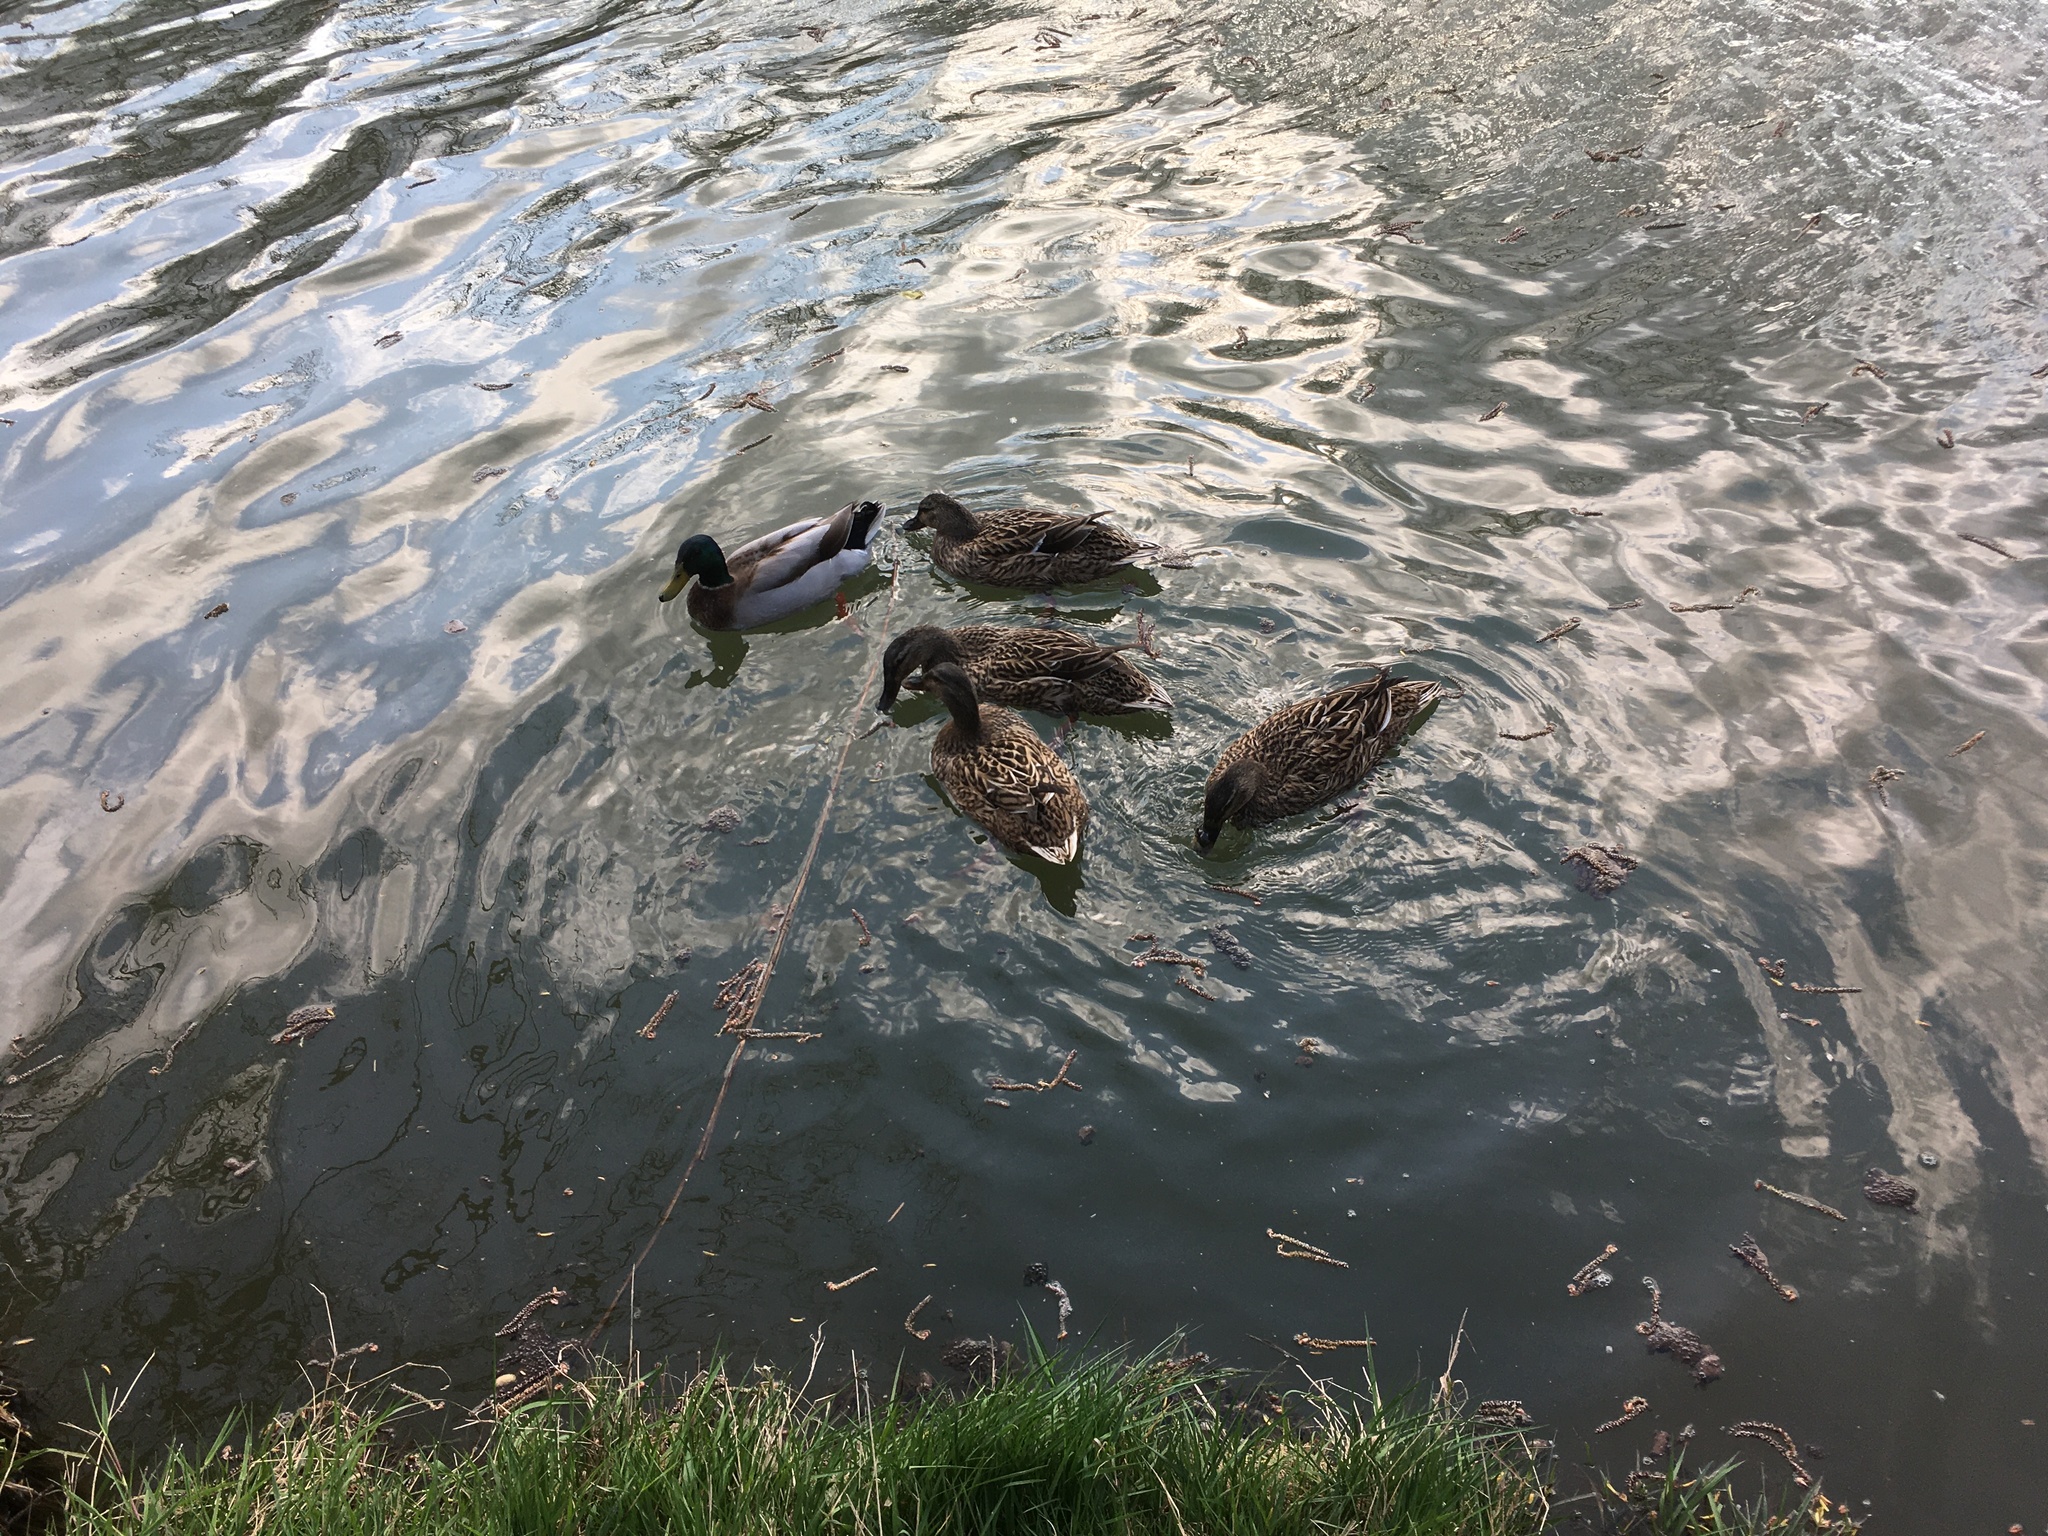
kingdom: Animalia
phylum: Chordata
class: Aves
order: Anseriformes
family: Anatidae
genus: Anas
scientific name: Anas platyrhynchos
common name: Mallard
